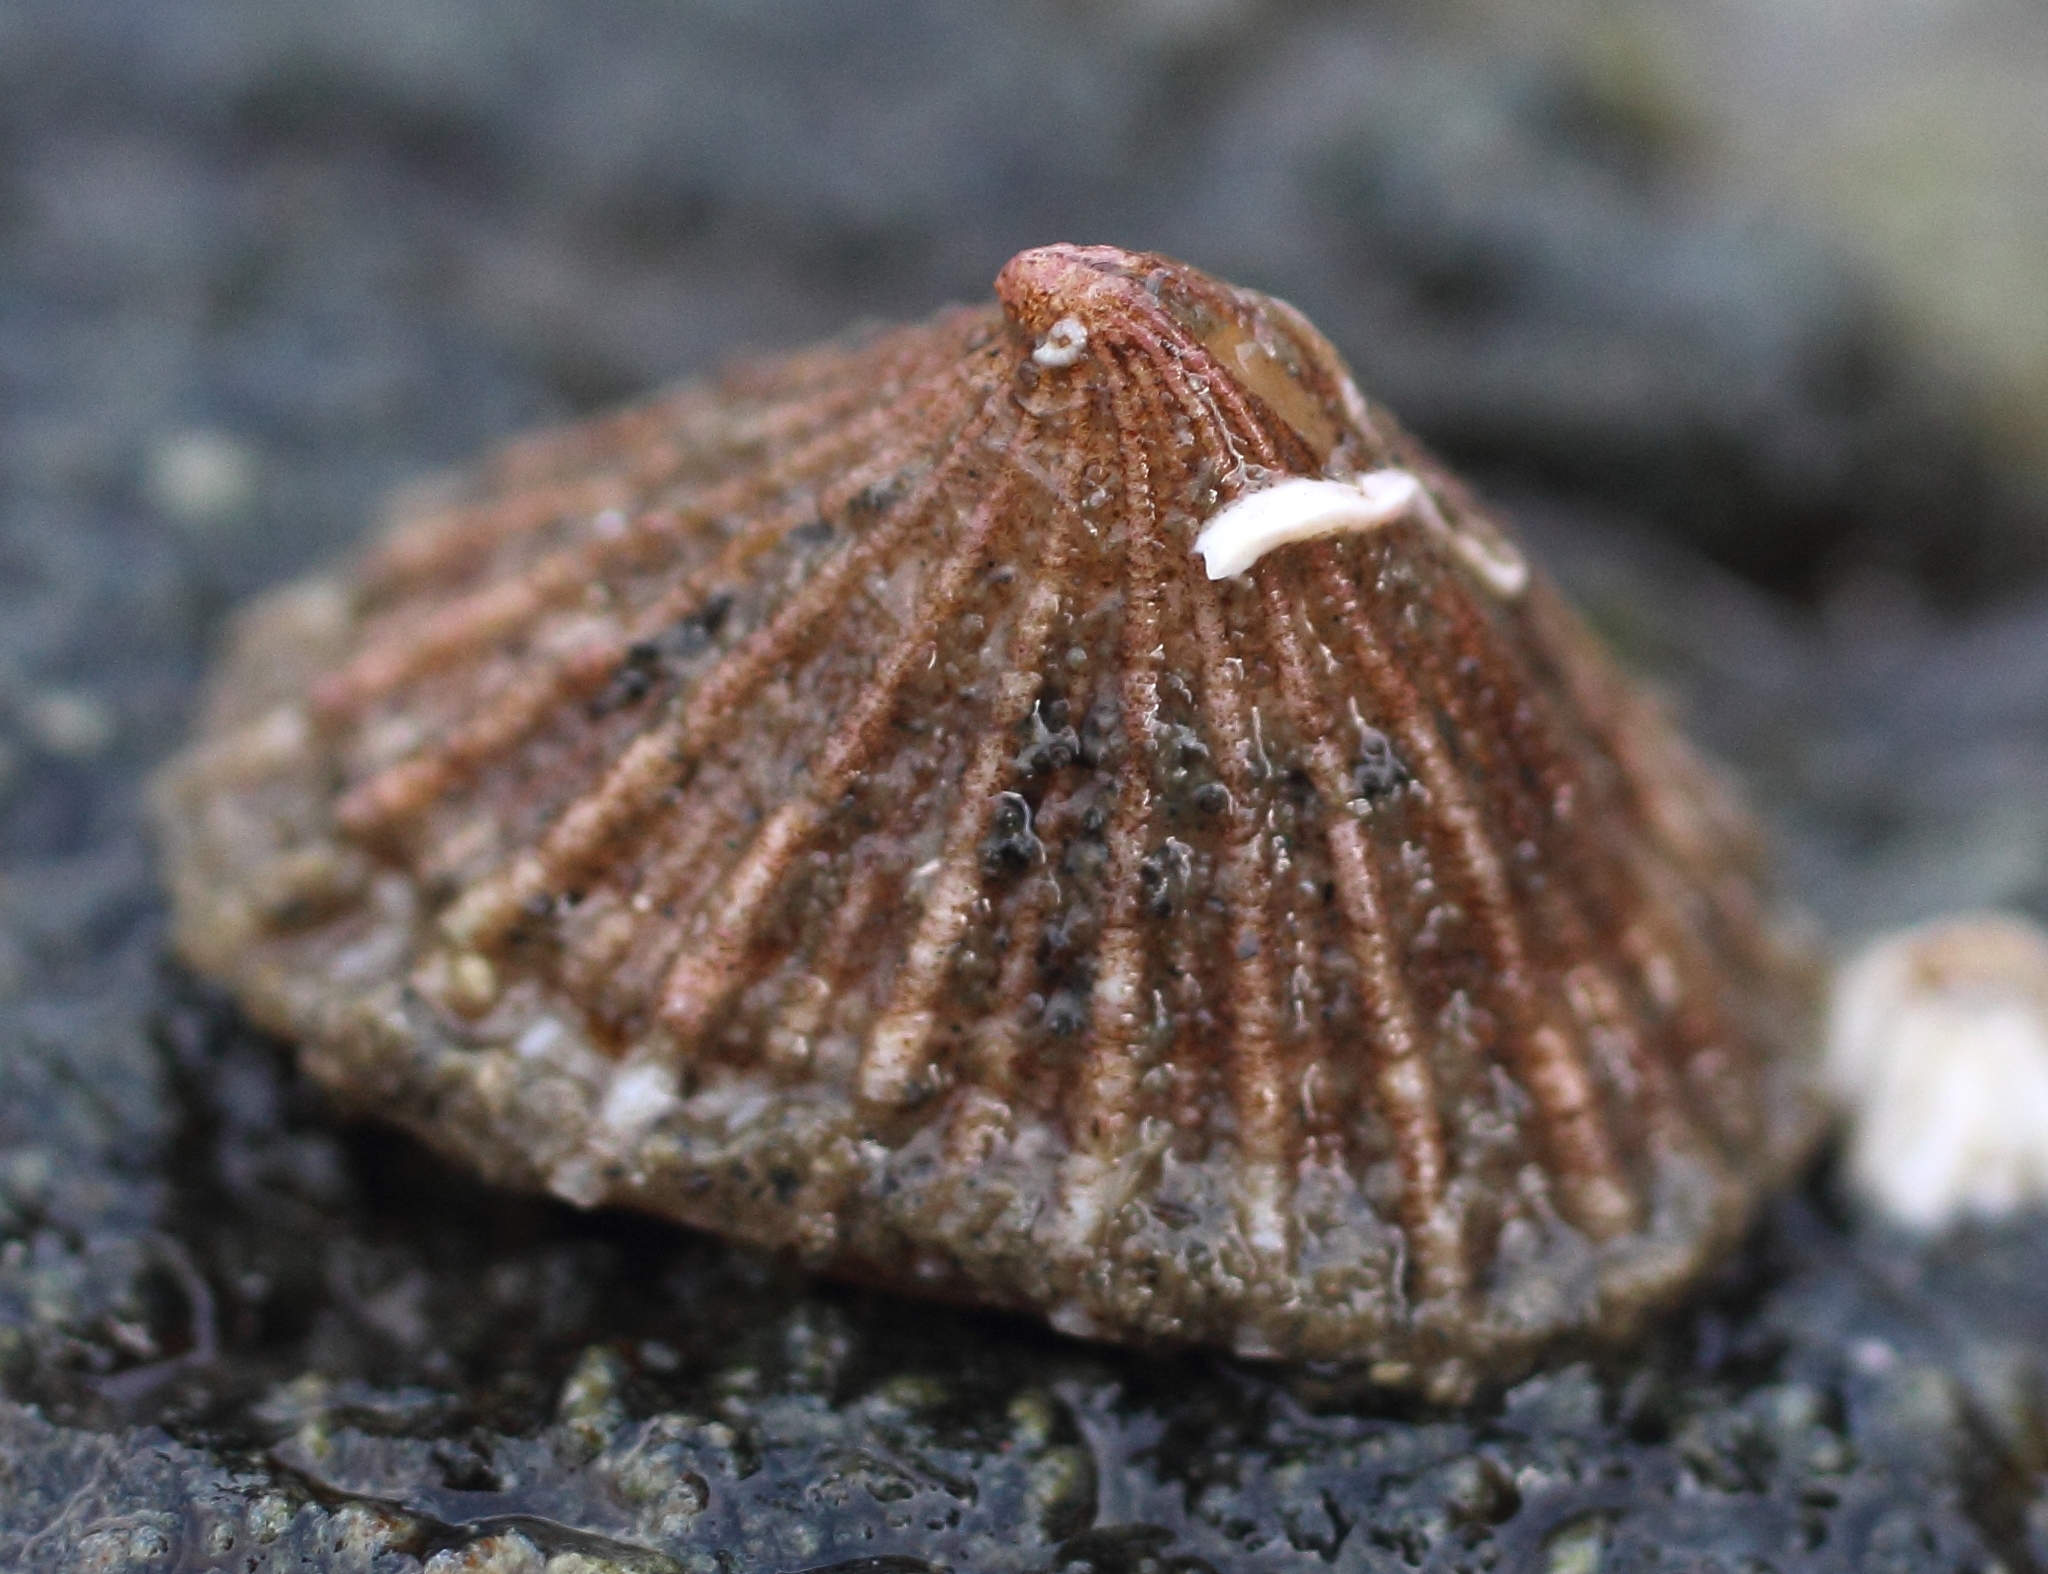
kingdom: Animalia
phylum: Mollusca
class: Gastropoda
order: Lepetellida
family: Fissurellidae
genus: Puncturella
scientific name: Puncturella multistriata
